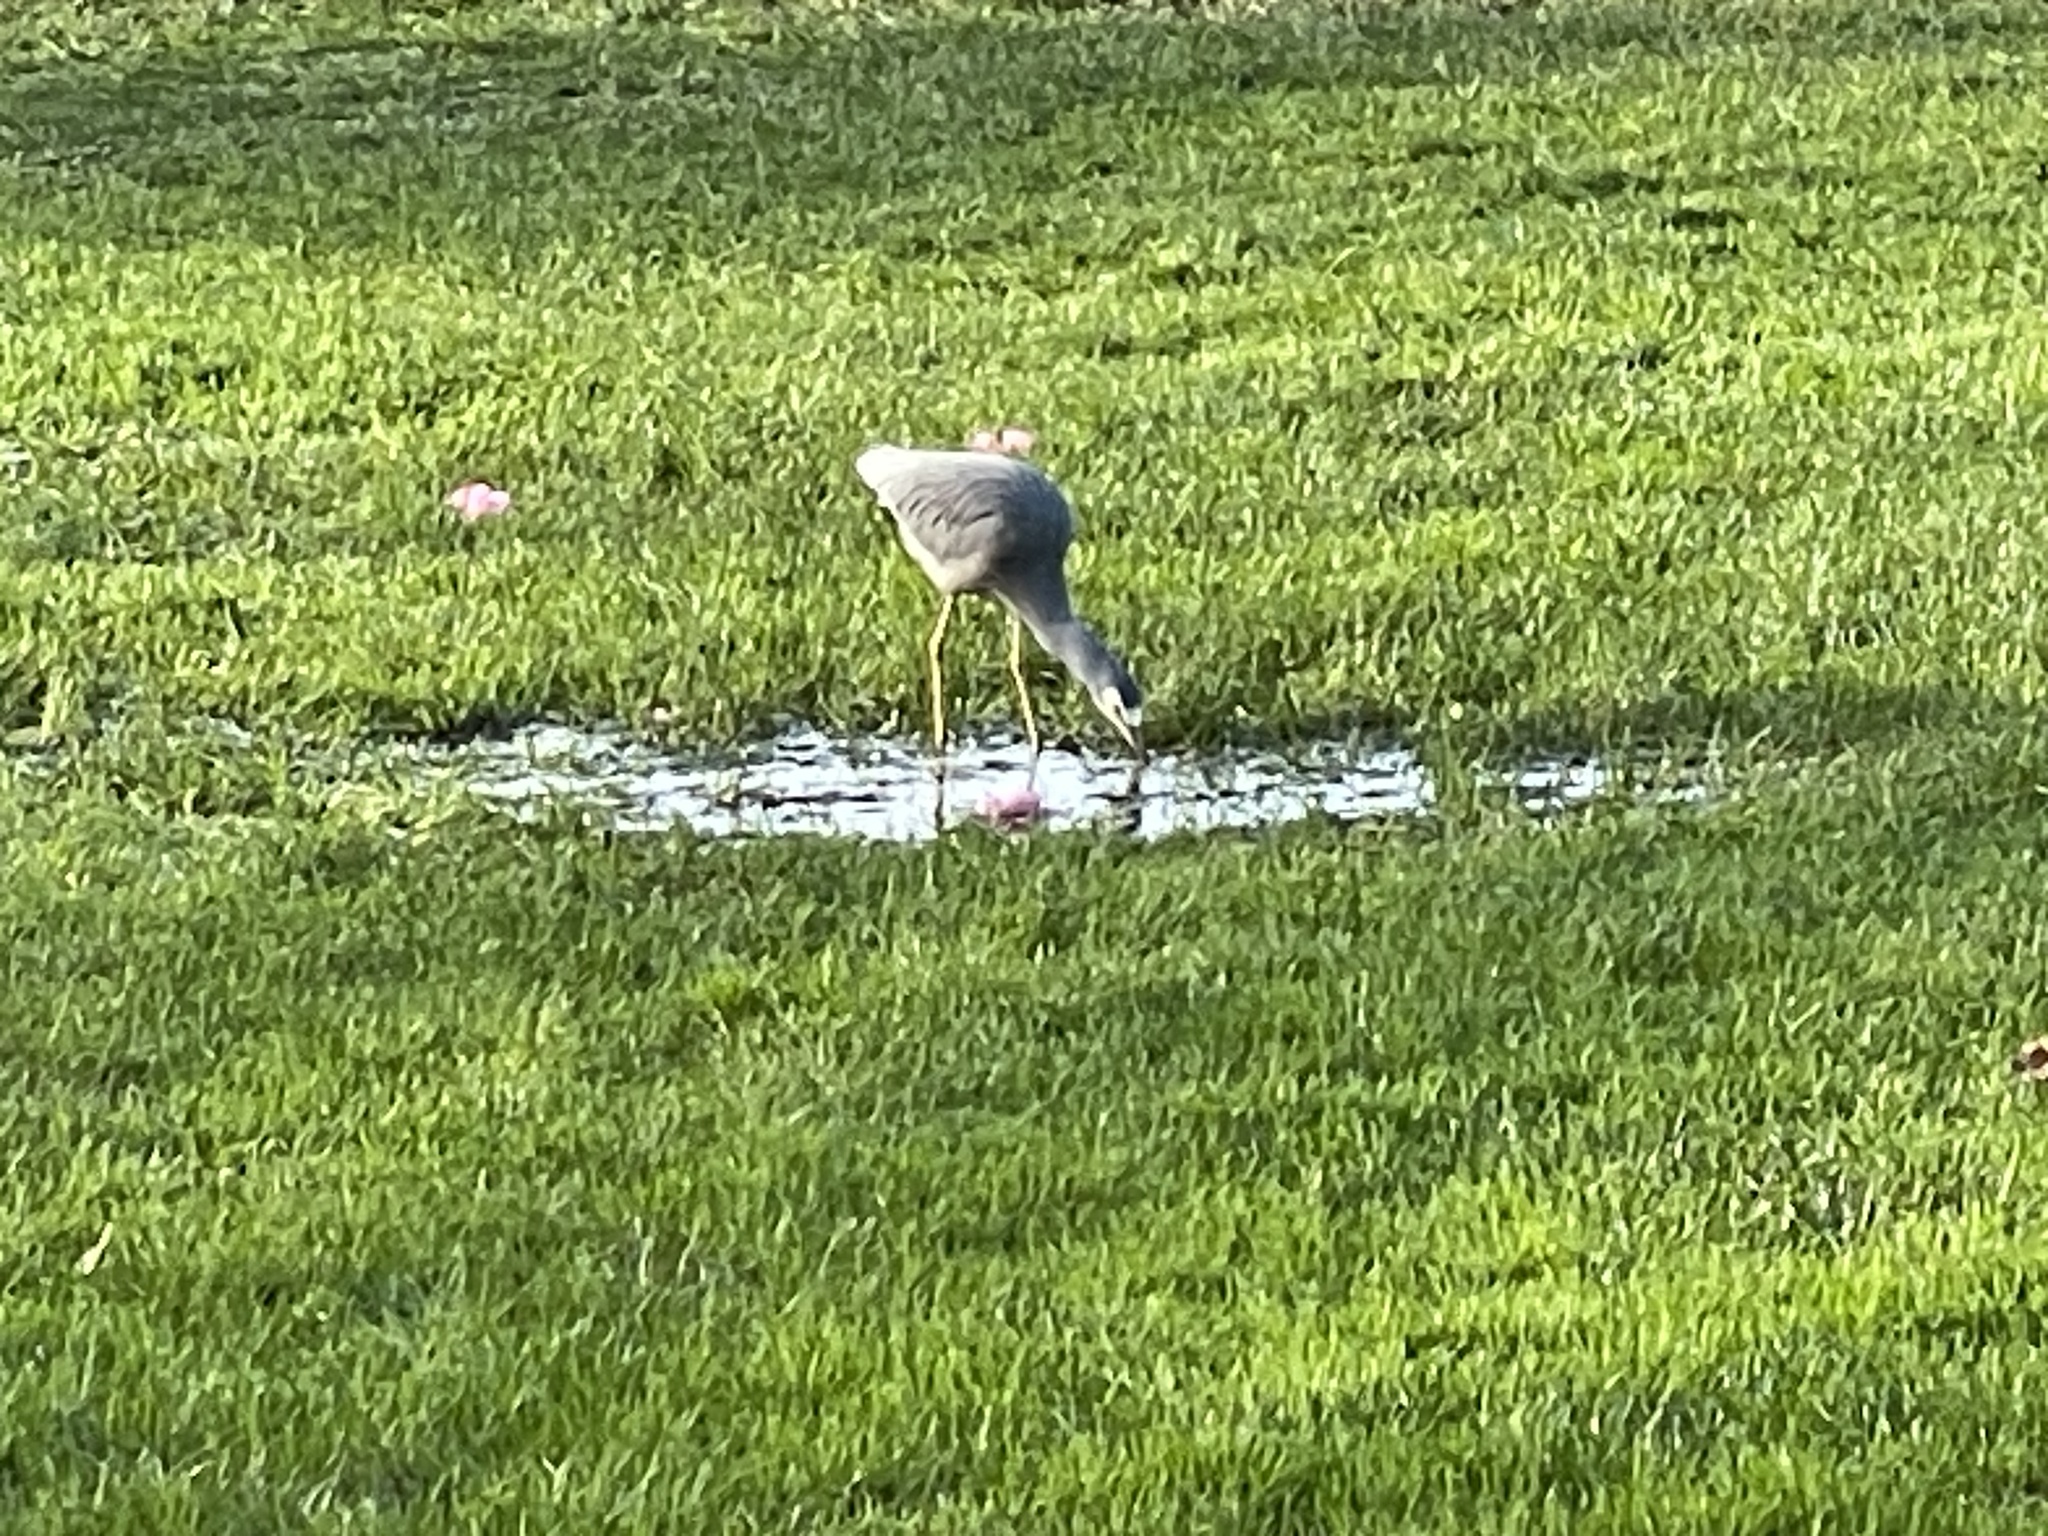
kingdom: Animalia
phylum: Chordata
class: Aves
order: Pelecaniformes
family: Ardeidae
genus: Egretta
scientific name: Egretta novaehollandiae
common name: White-faced heron
